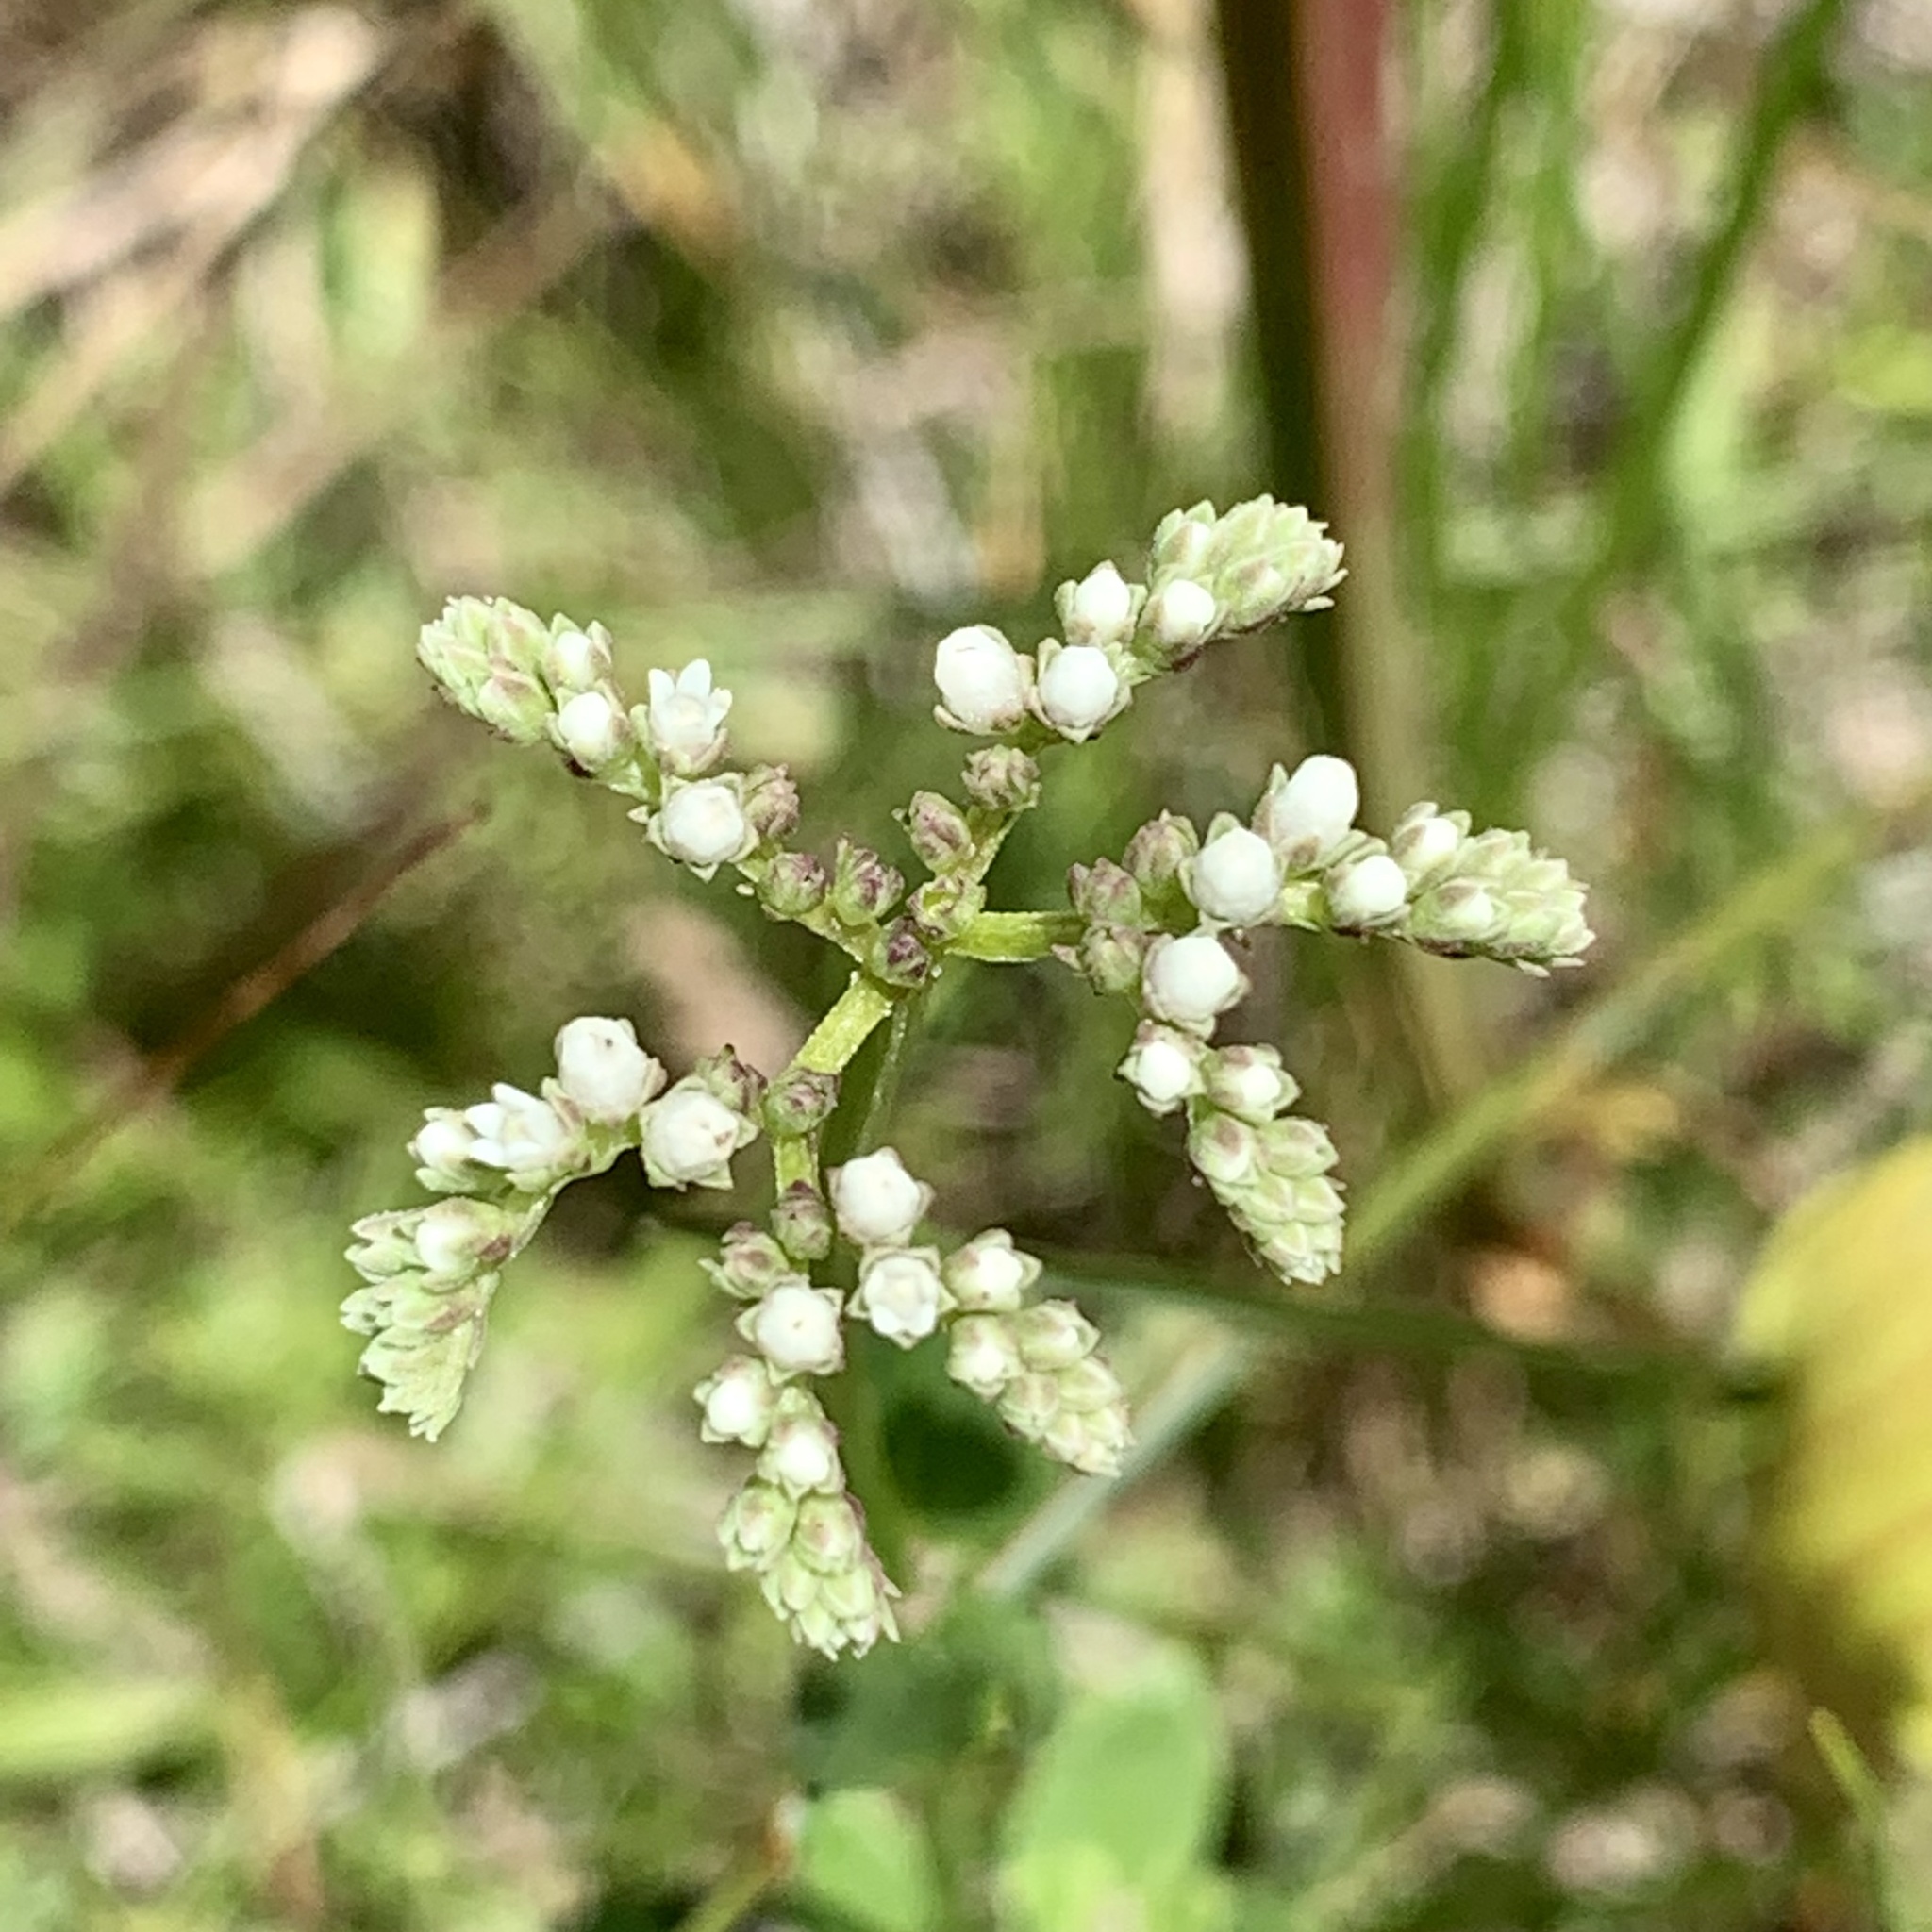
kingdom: Plantae
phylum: Tracheophyta
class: Magnoliopsida
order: Gentianales
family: Loganiaceae
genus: Mitreola
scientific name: Mitreola sessilifolia
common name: Swamp hornpod
